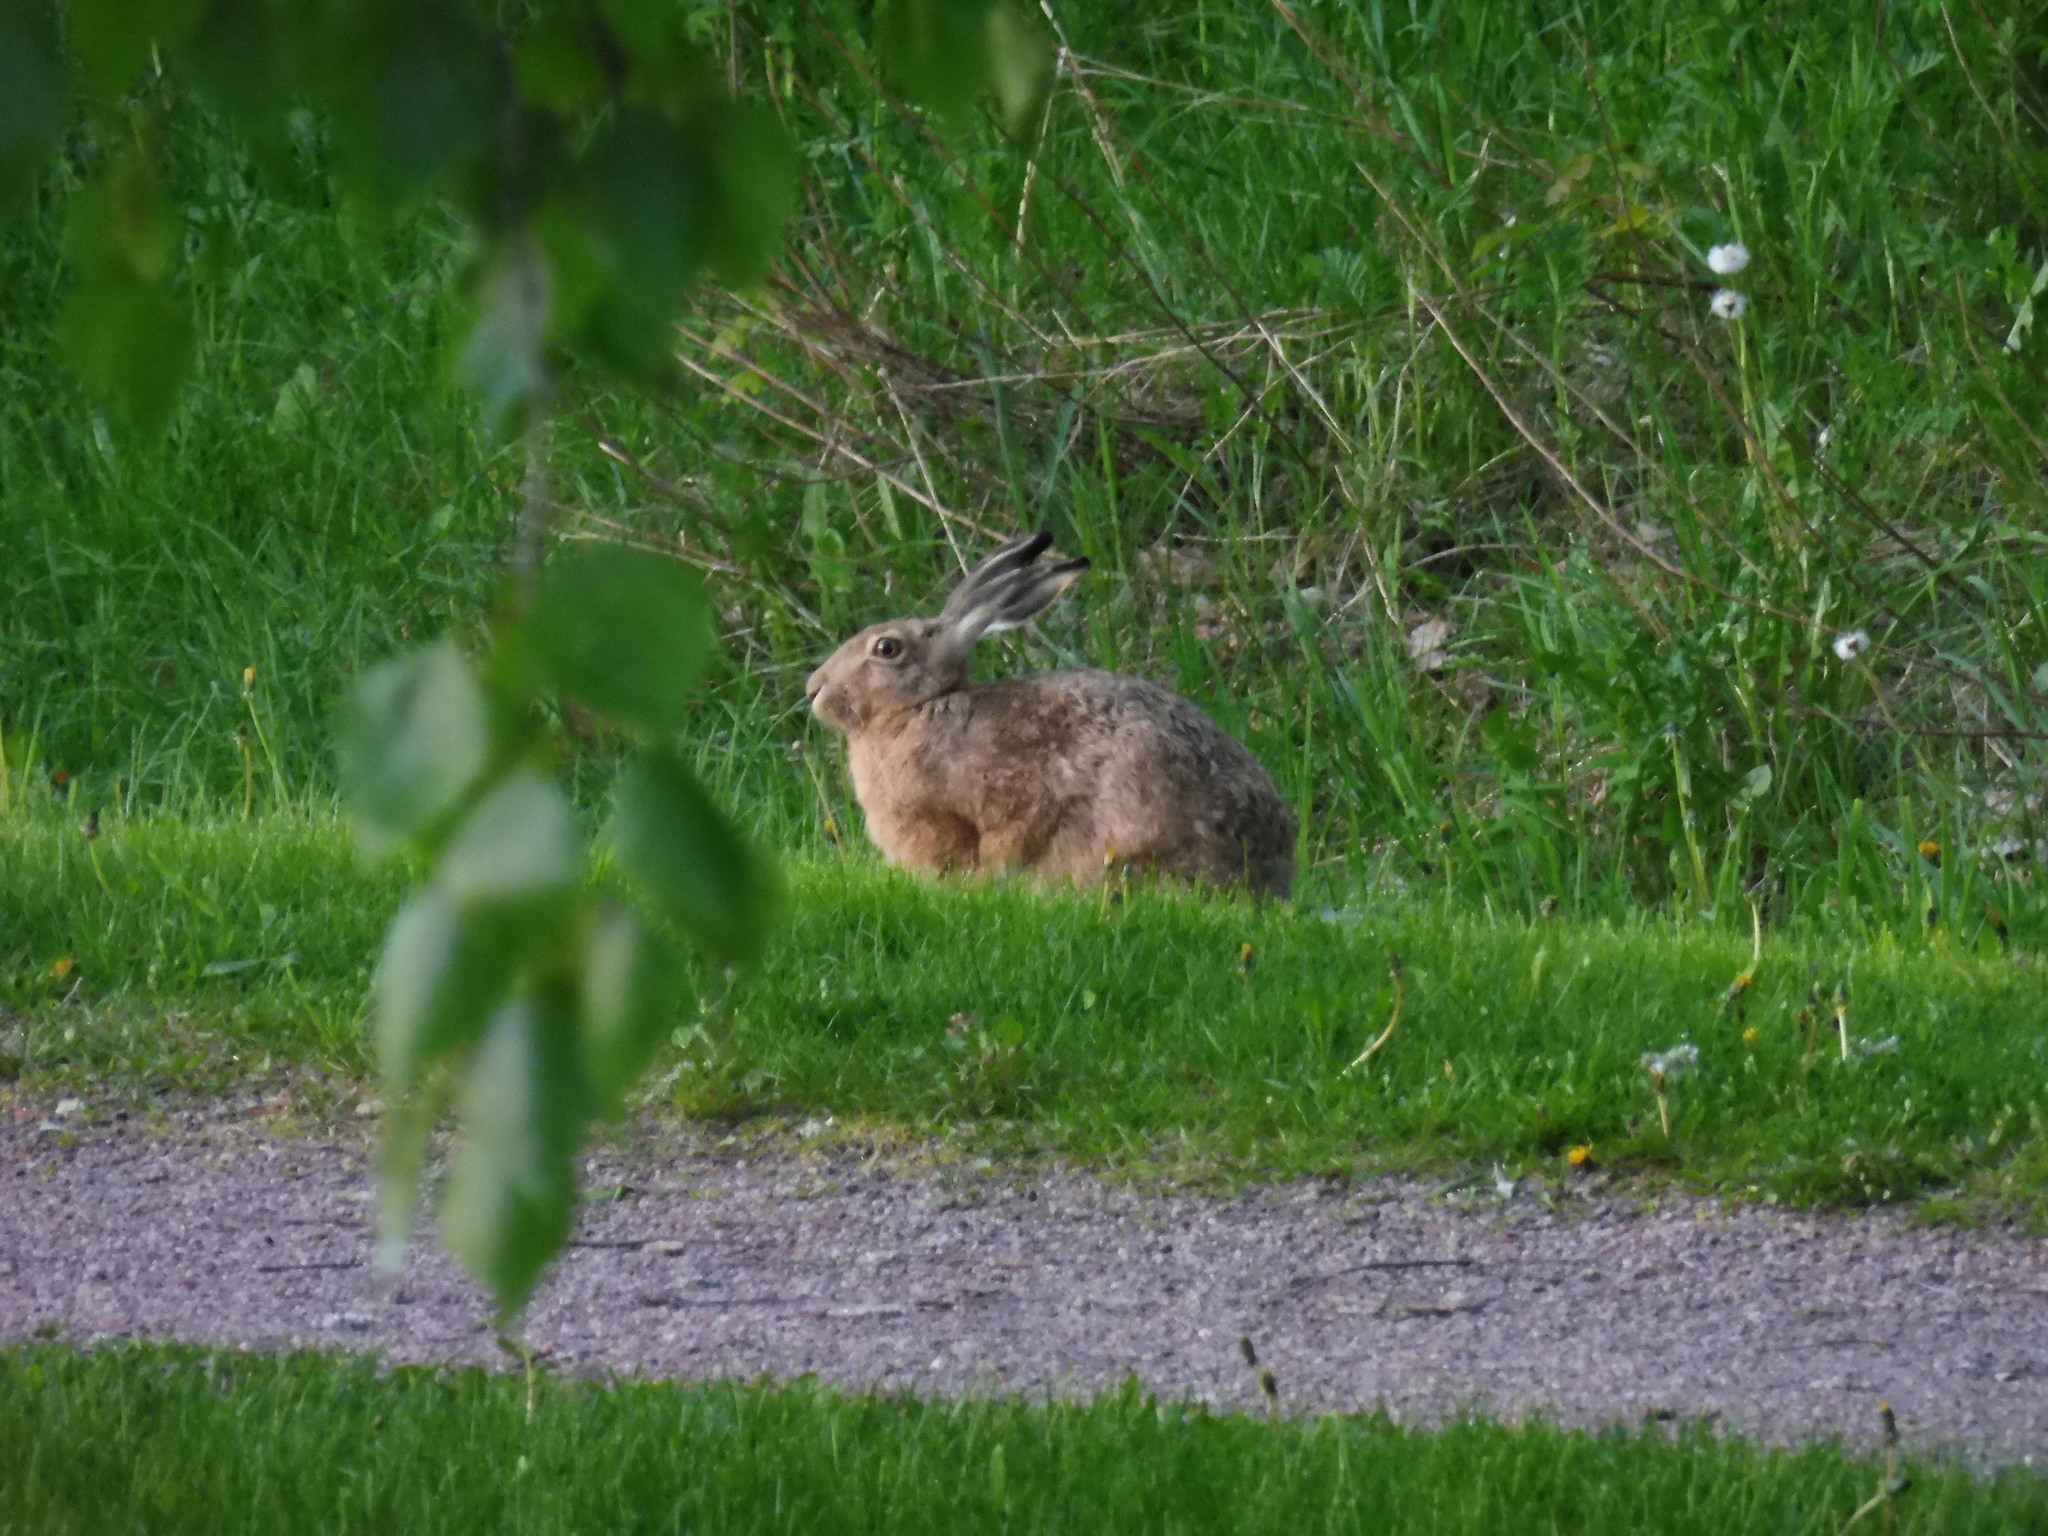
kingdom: Animalia
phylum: Chordata
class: Mammalia
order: Lagomorpha
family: Leporidae
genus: Lepus
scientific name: Lepus europaeus
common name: European hare
